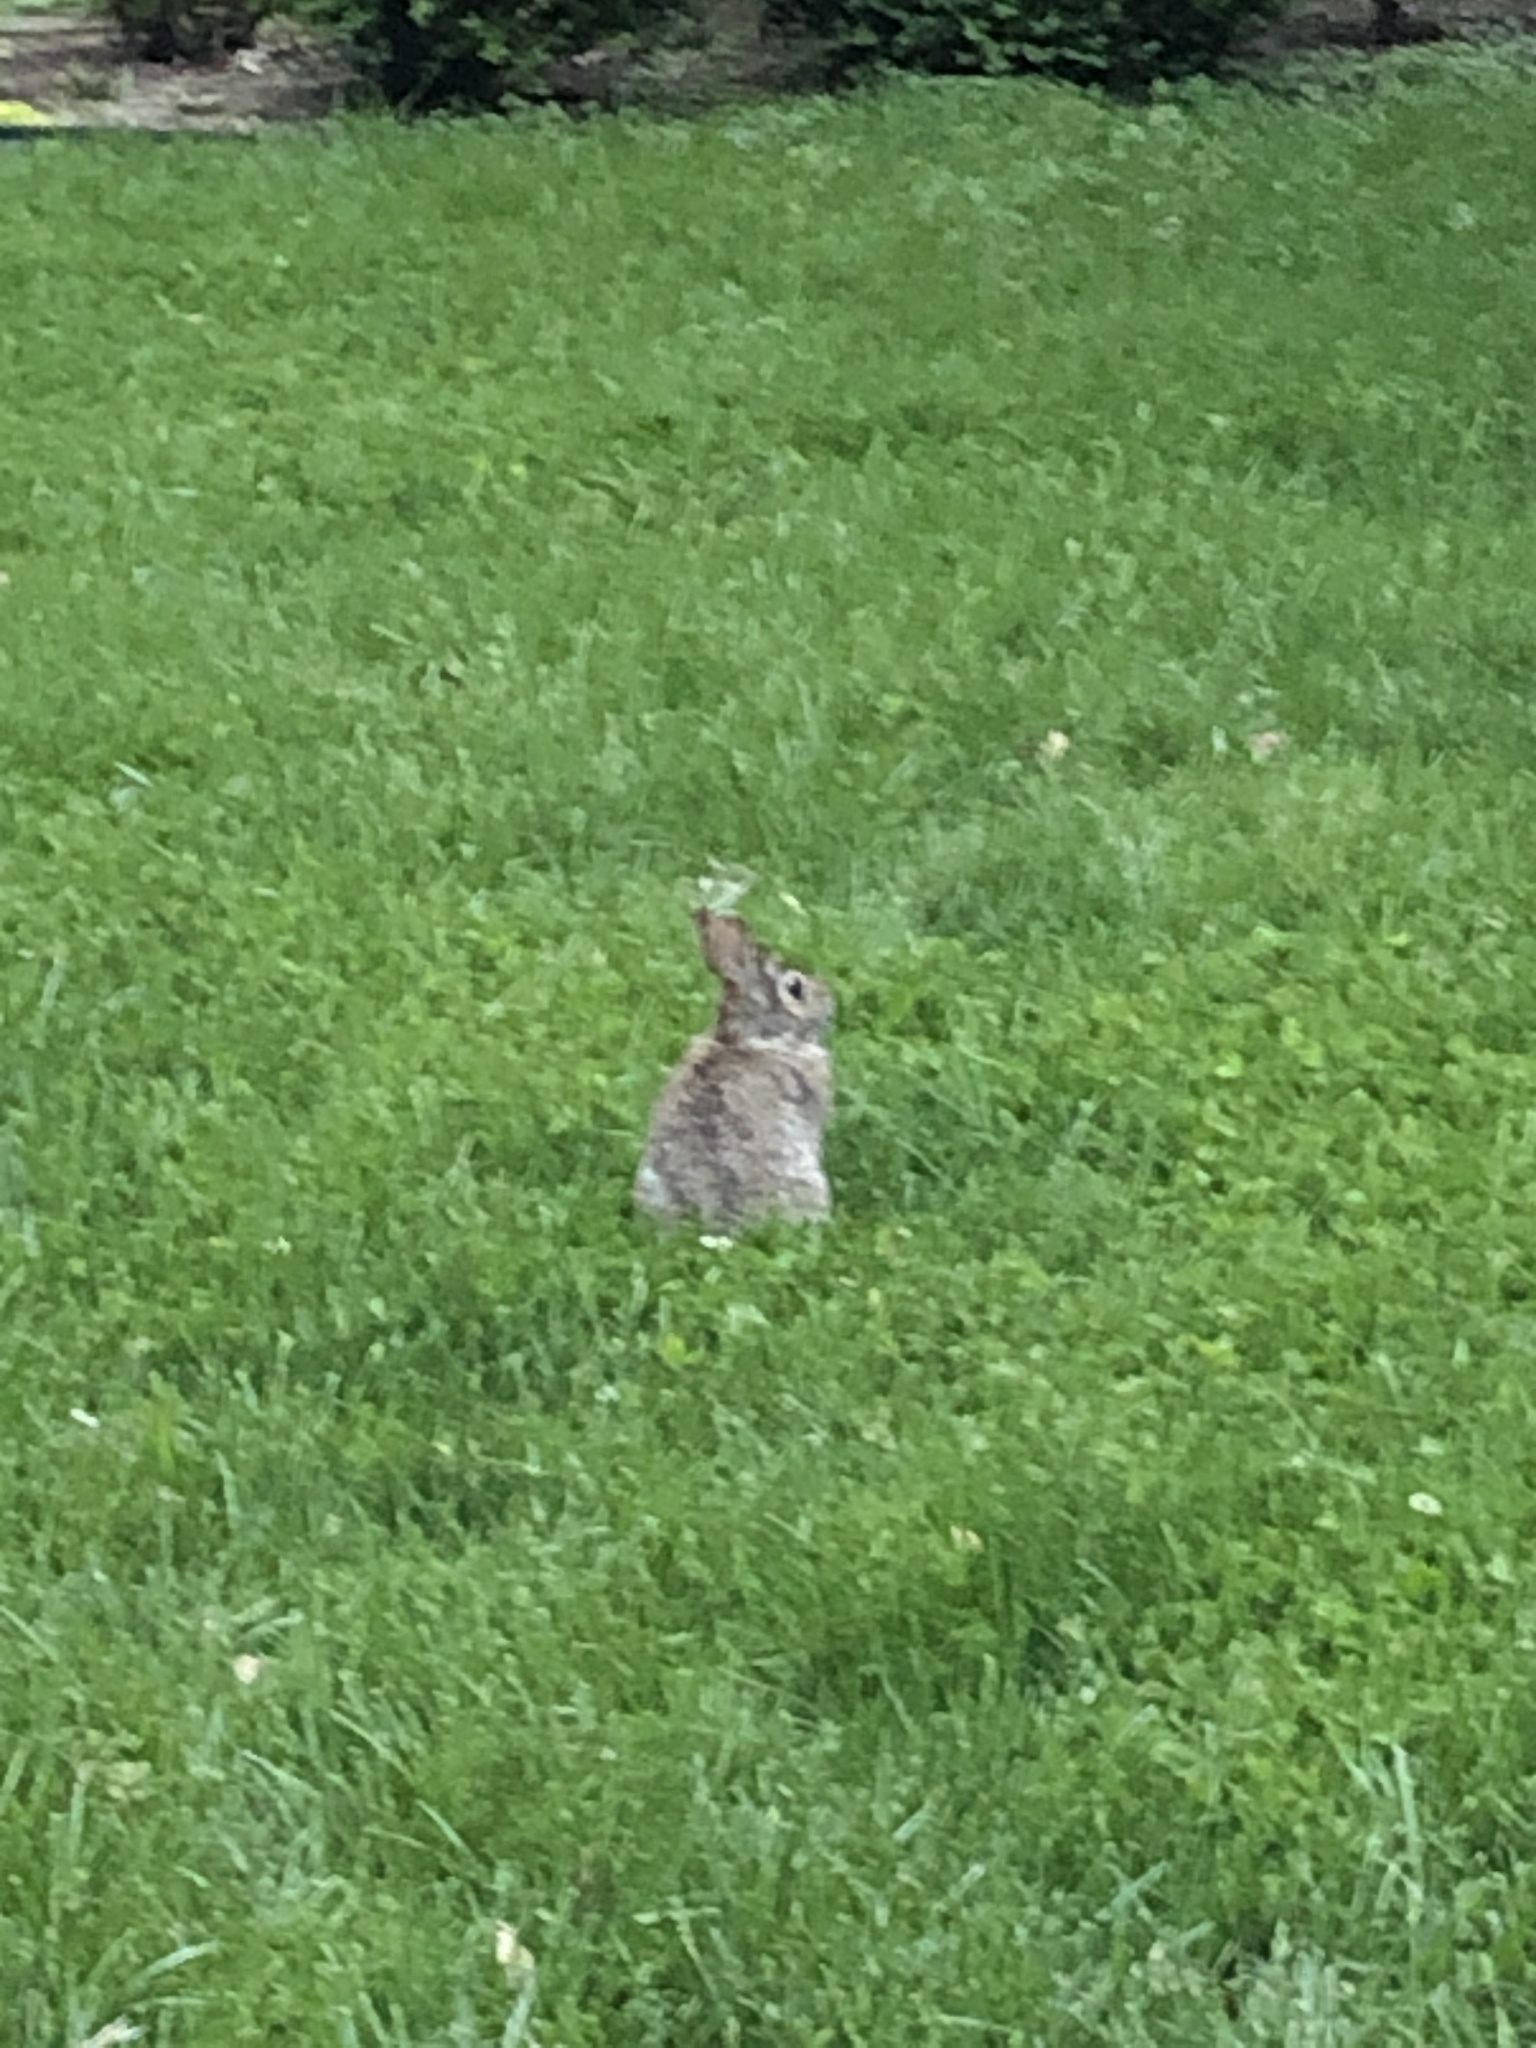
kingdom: Animalia
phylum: Chordata
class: Mammalia
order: Lagomorpha
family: Leporidae
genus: Sylvilagus
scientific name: Sylvilagus floridanus
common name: Eastern cottontail
